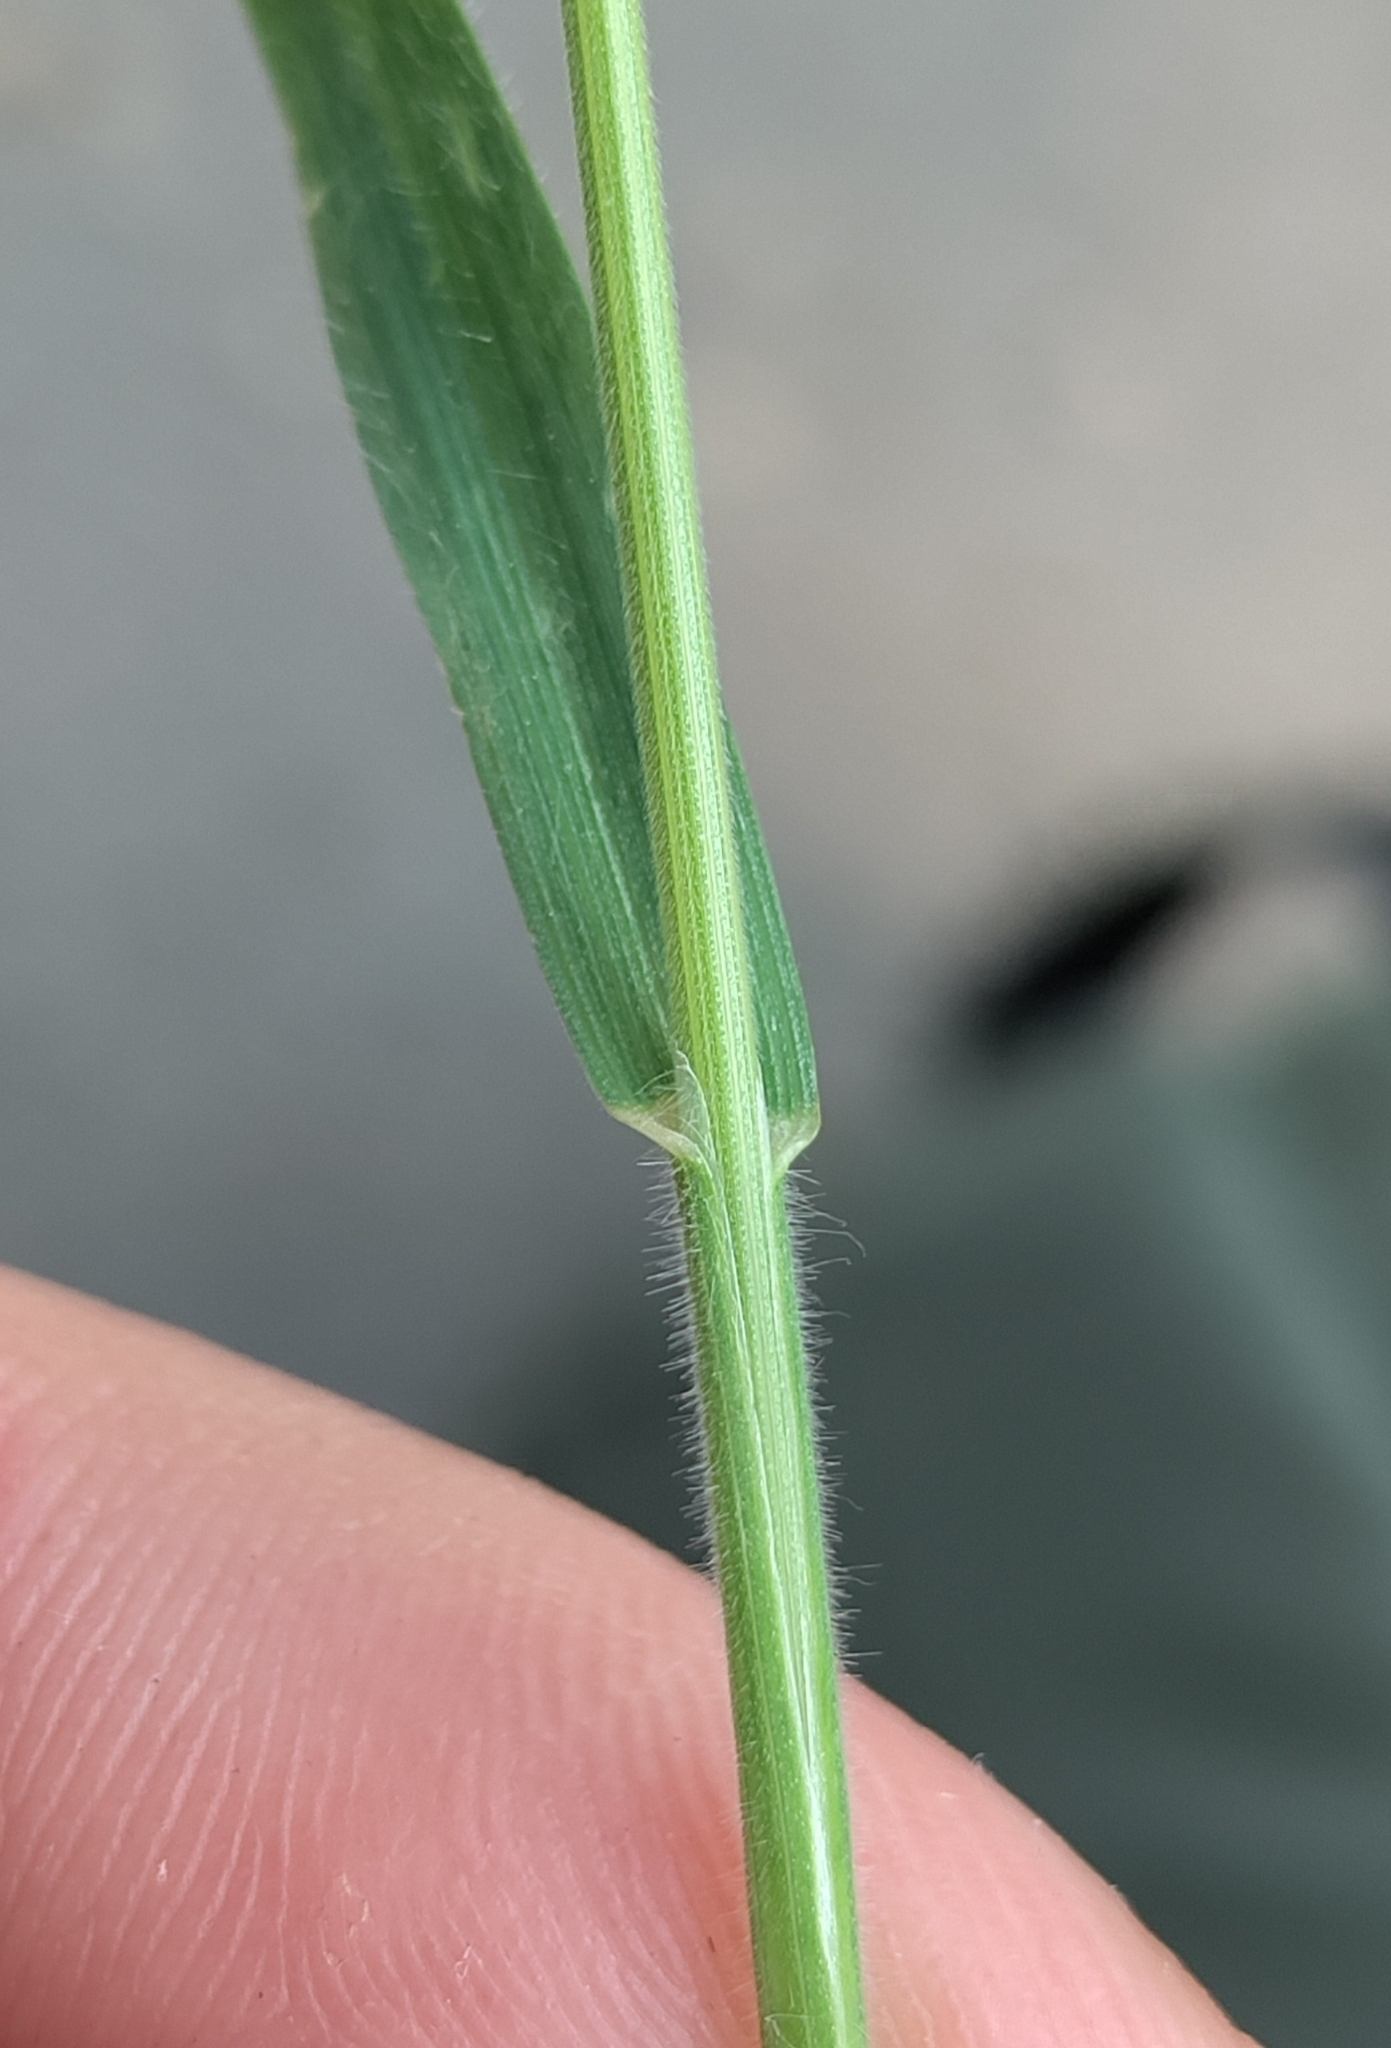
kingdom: Plantae
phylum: Tracheophyta
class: Liliopsida
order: Poales
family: Poaceae
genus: Bromus
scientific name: Bromus hordeaceus
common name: Soft brome
